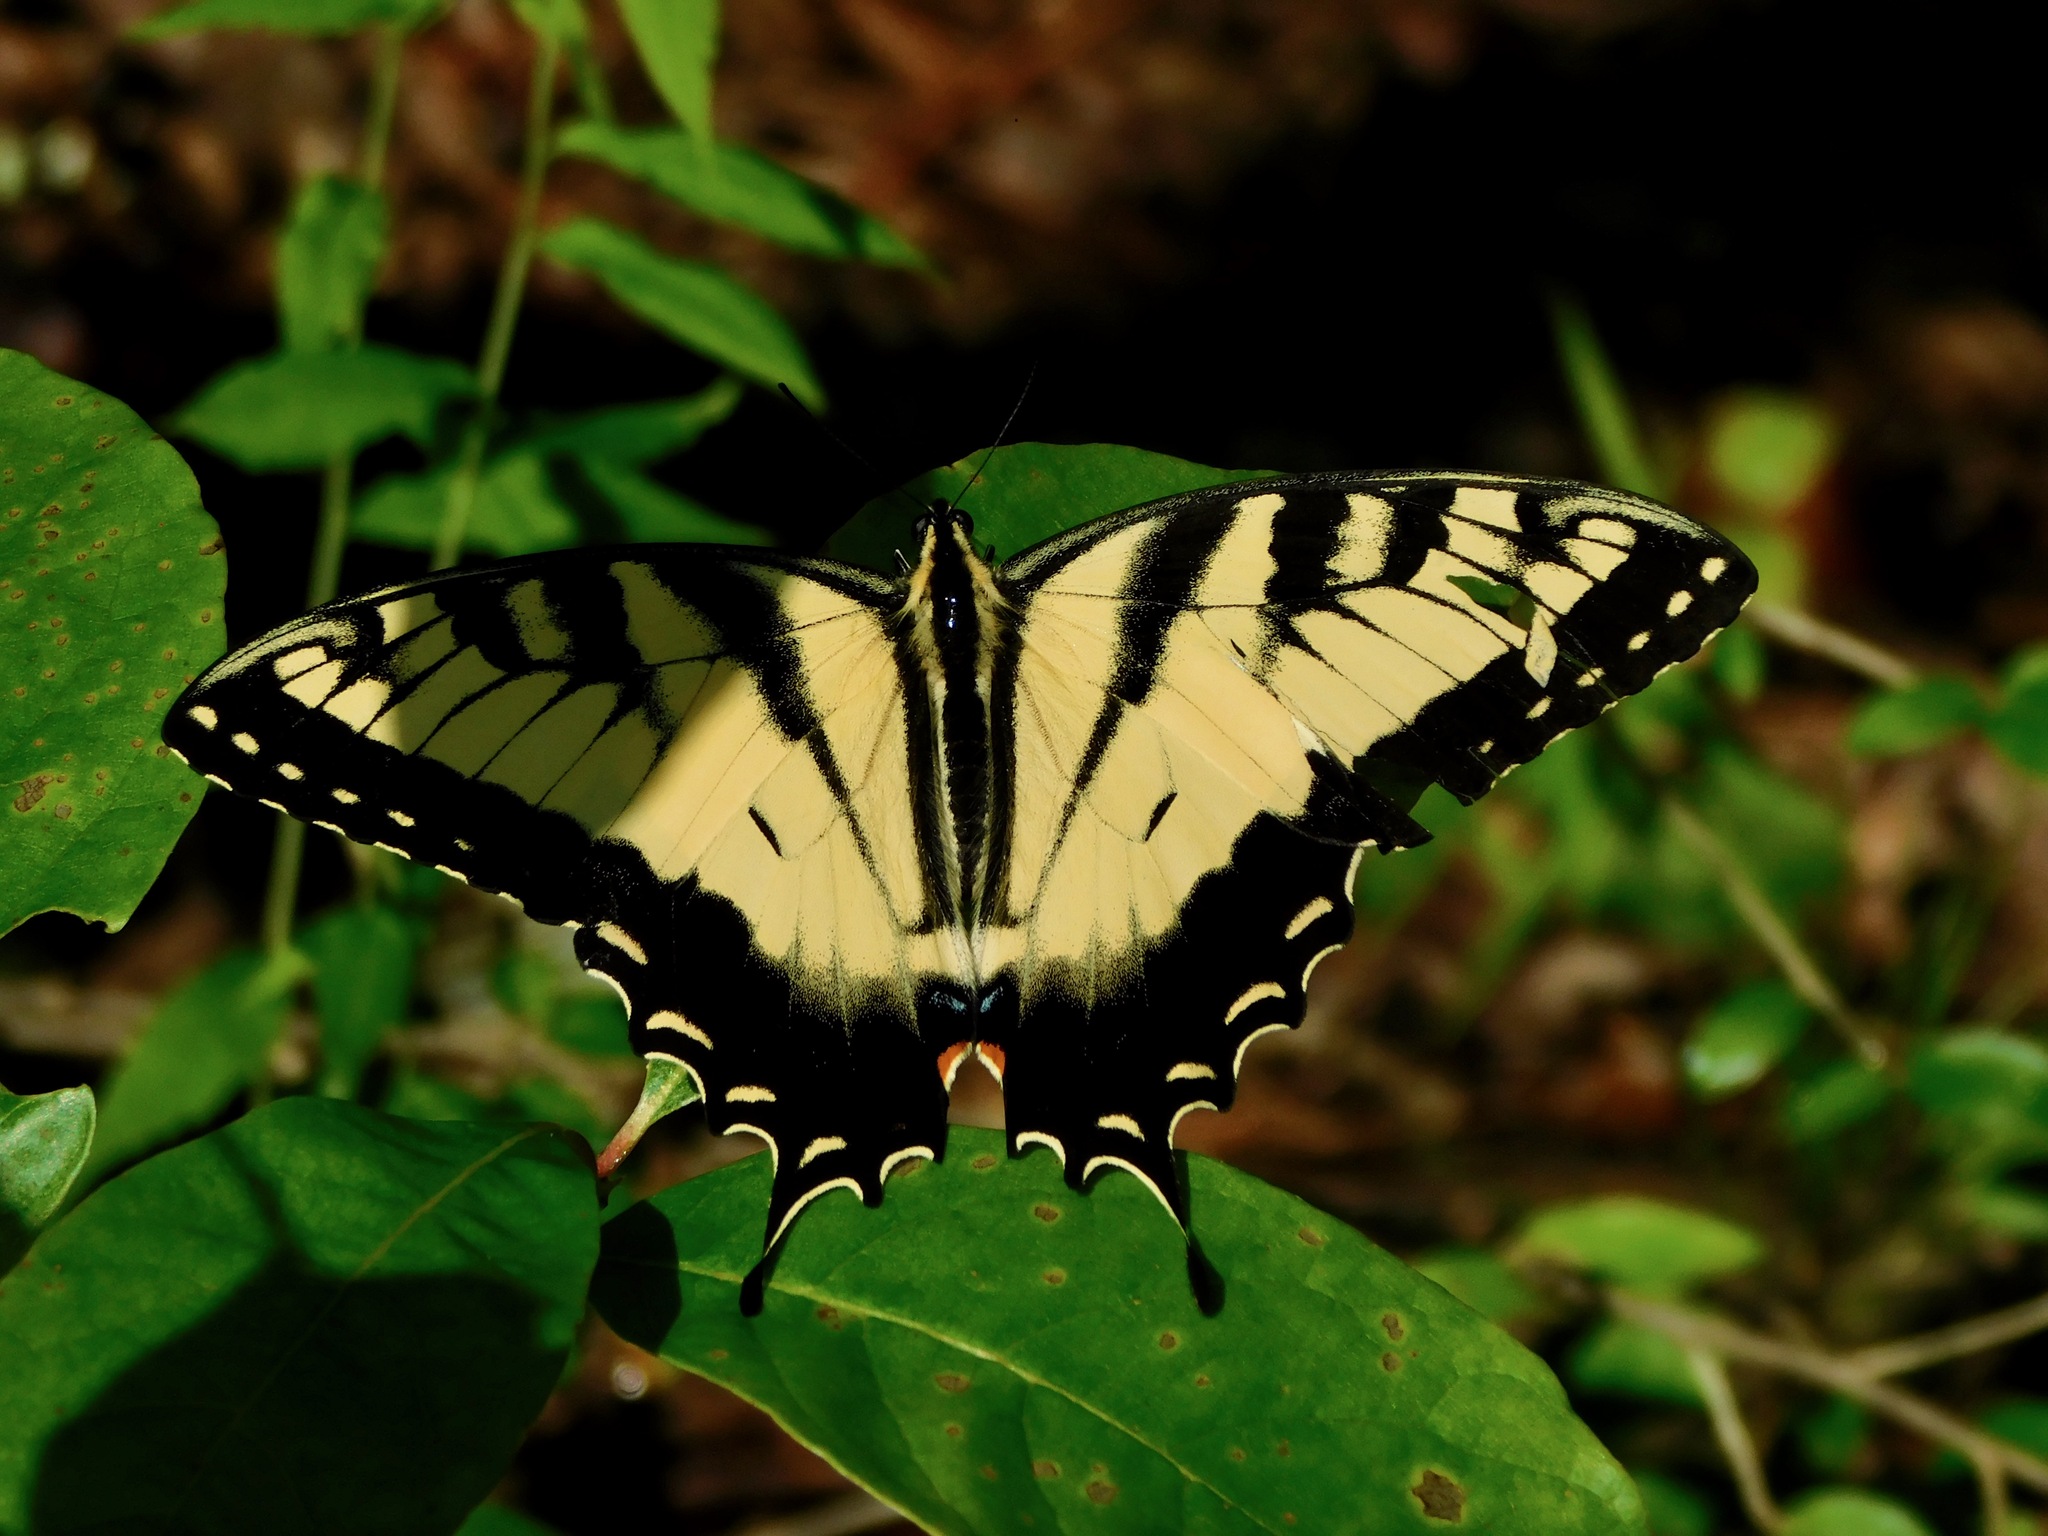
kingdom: Animalia
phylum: Arthropoda
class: Insecta
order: Lepidoptera
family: Papilionidae
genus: Papilio
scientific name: Papilio glaucus
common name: Tiger swallowtail
